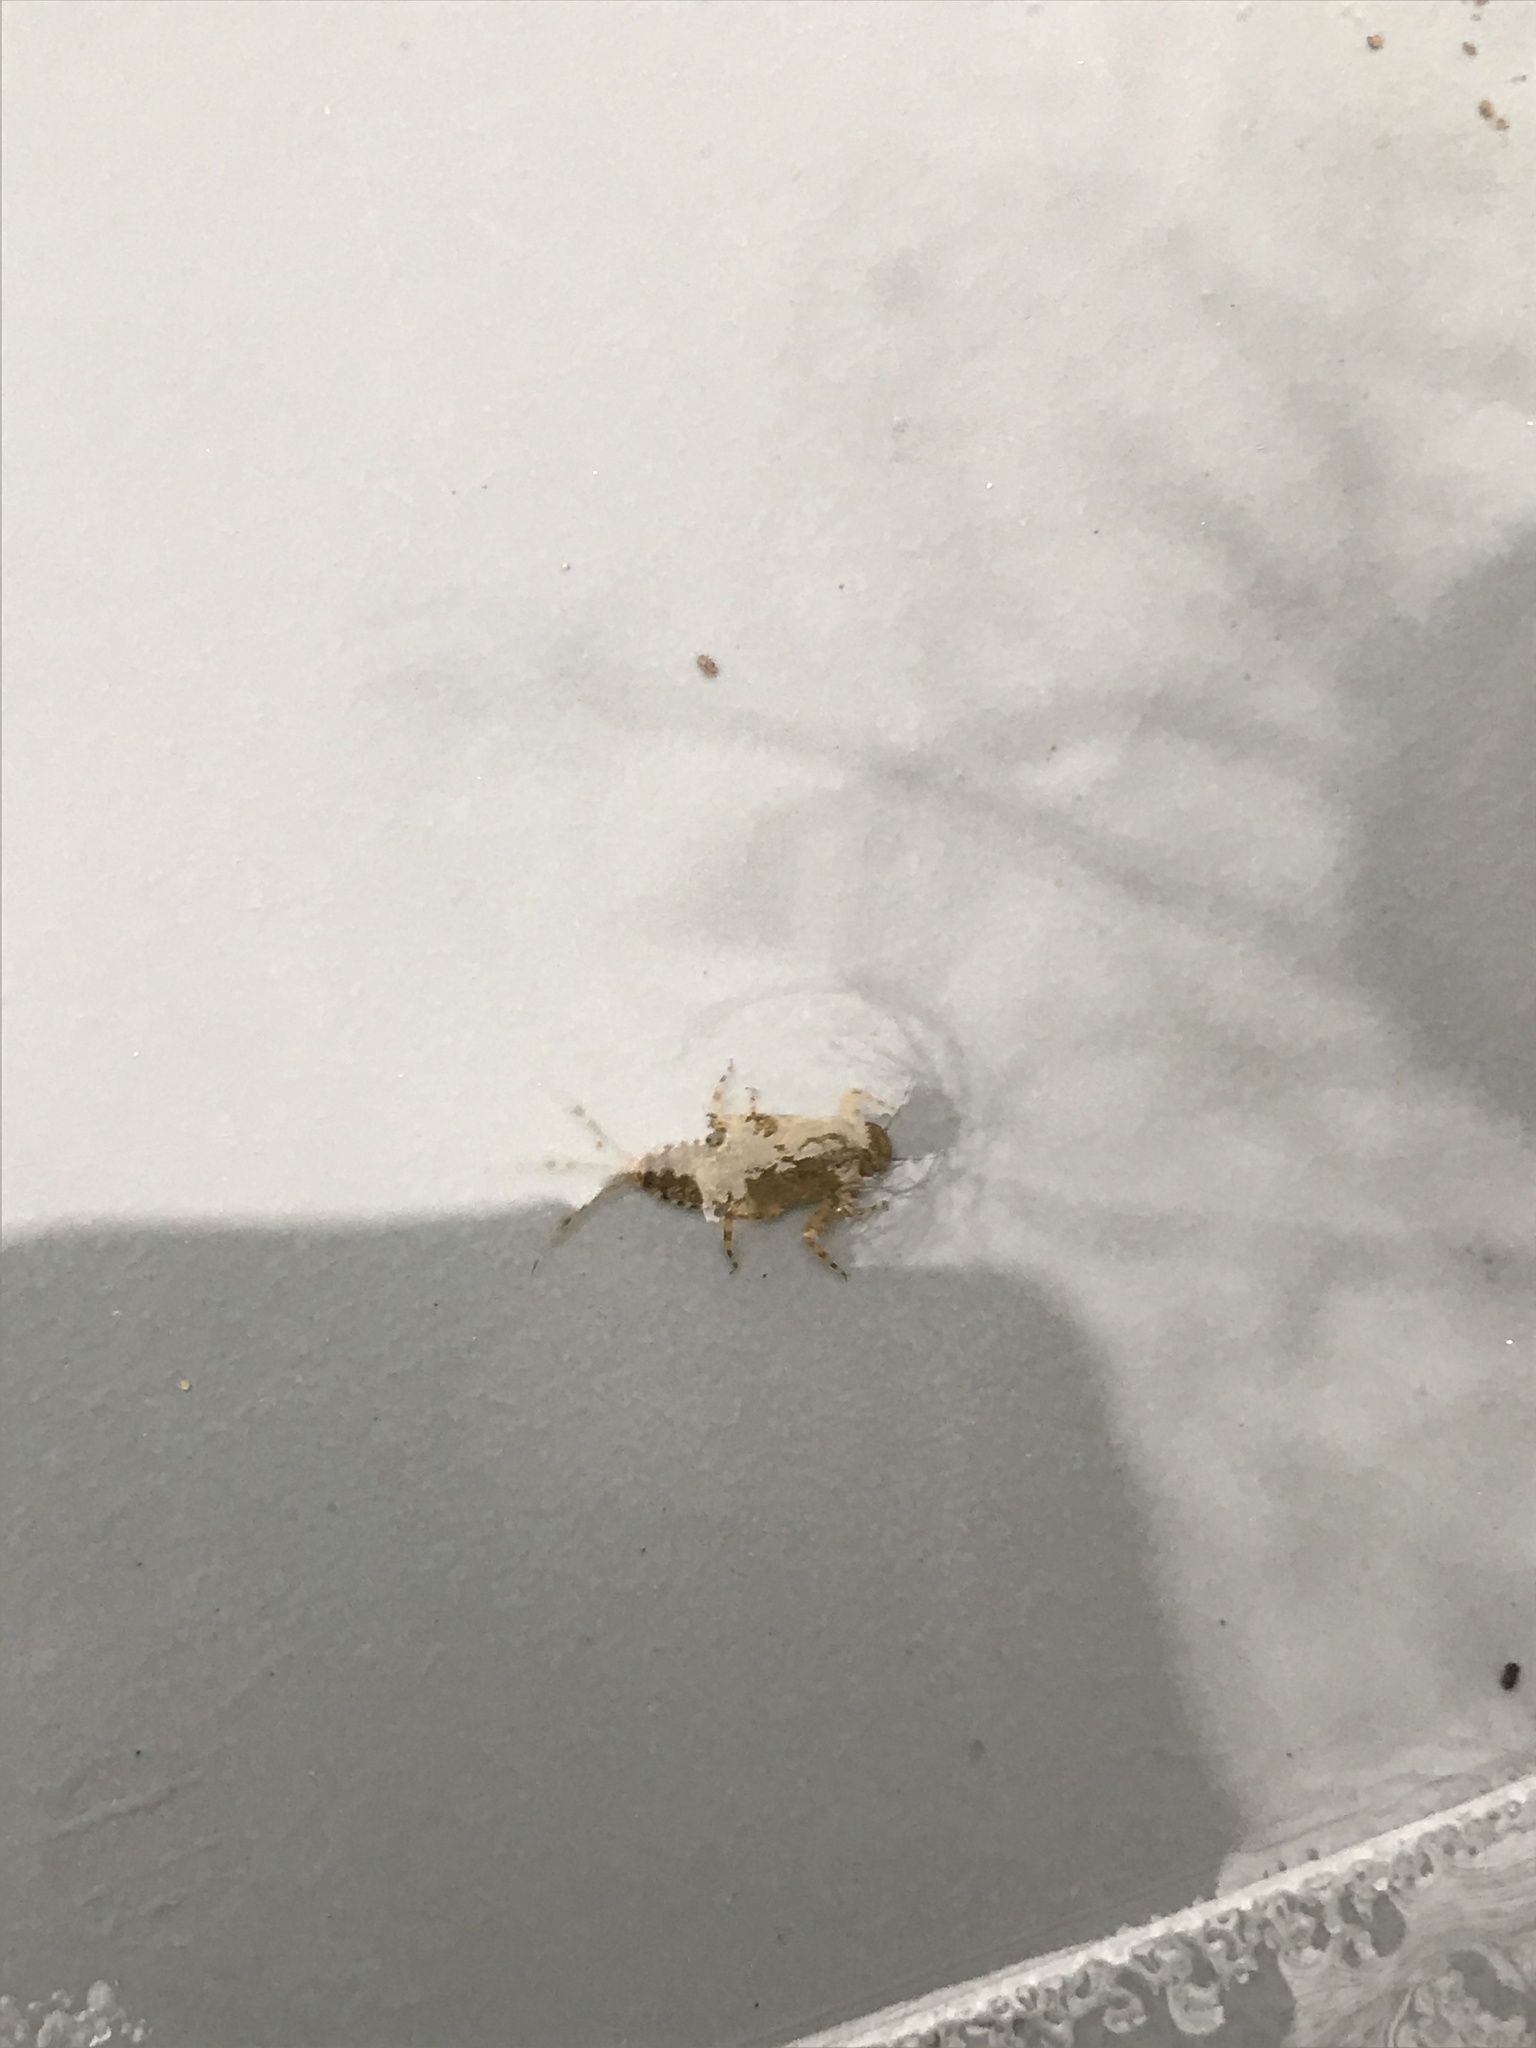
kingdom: Animalia
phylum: Arthropoda
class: Insecta
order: Ephemeroptera
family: Ephemerellidae
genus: Ephemerella
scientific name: Ephemerella subvaria
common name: Dark hendrickson
